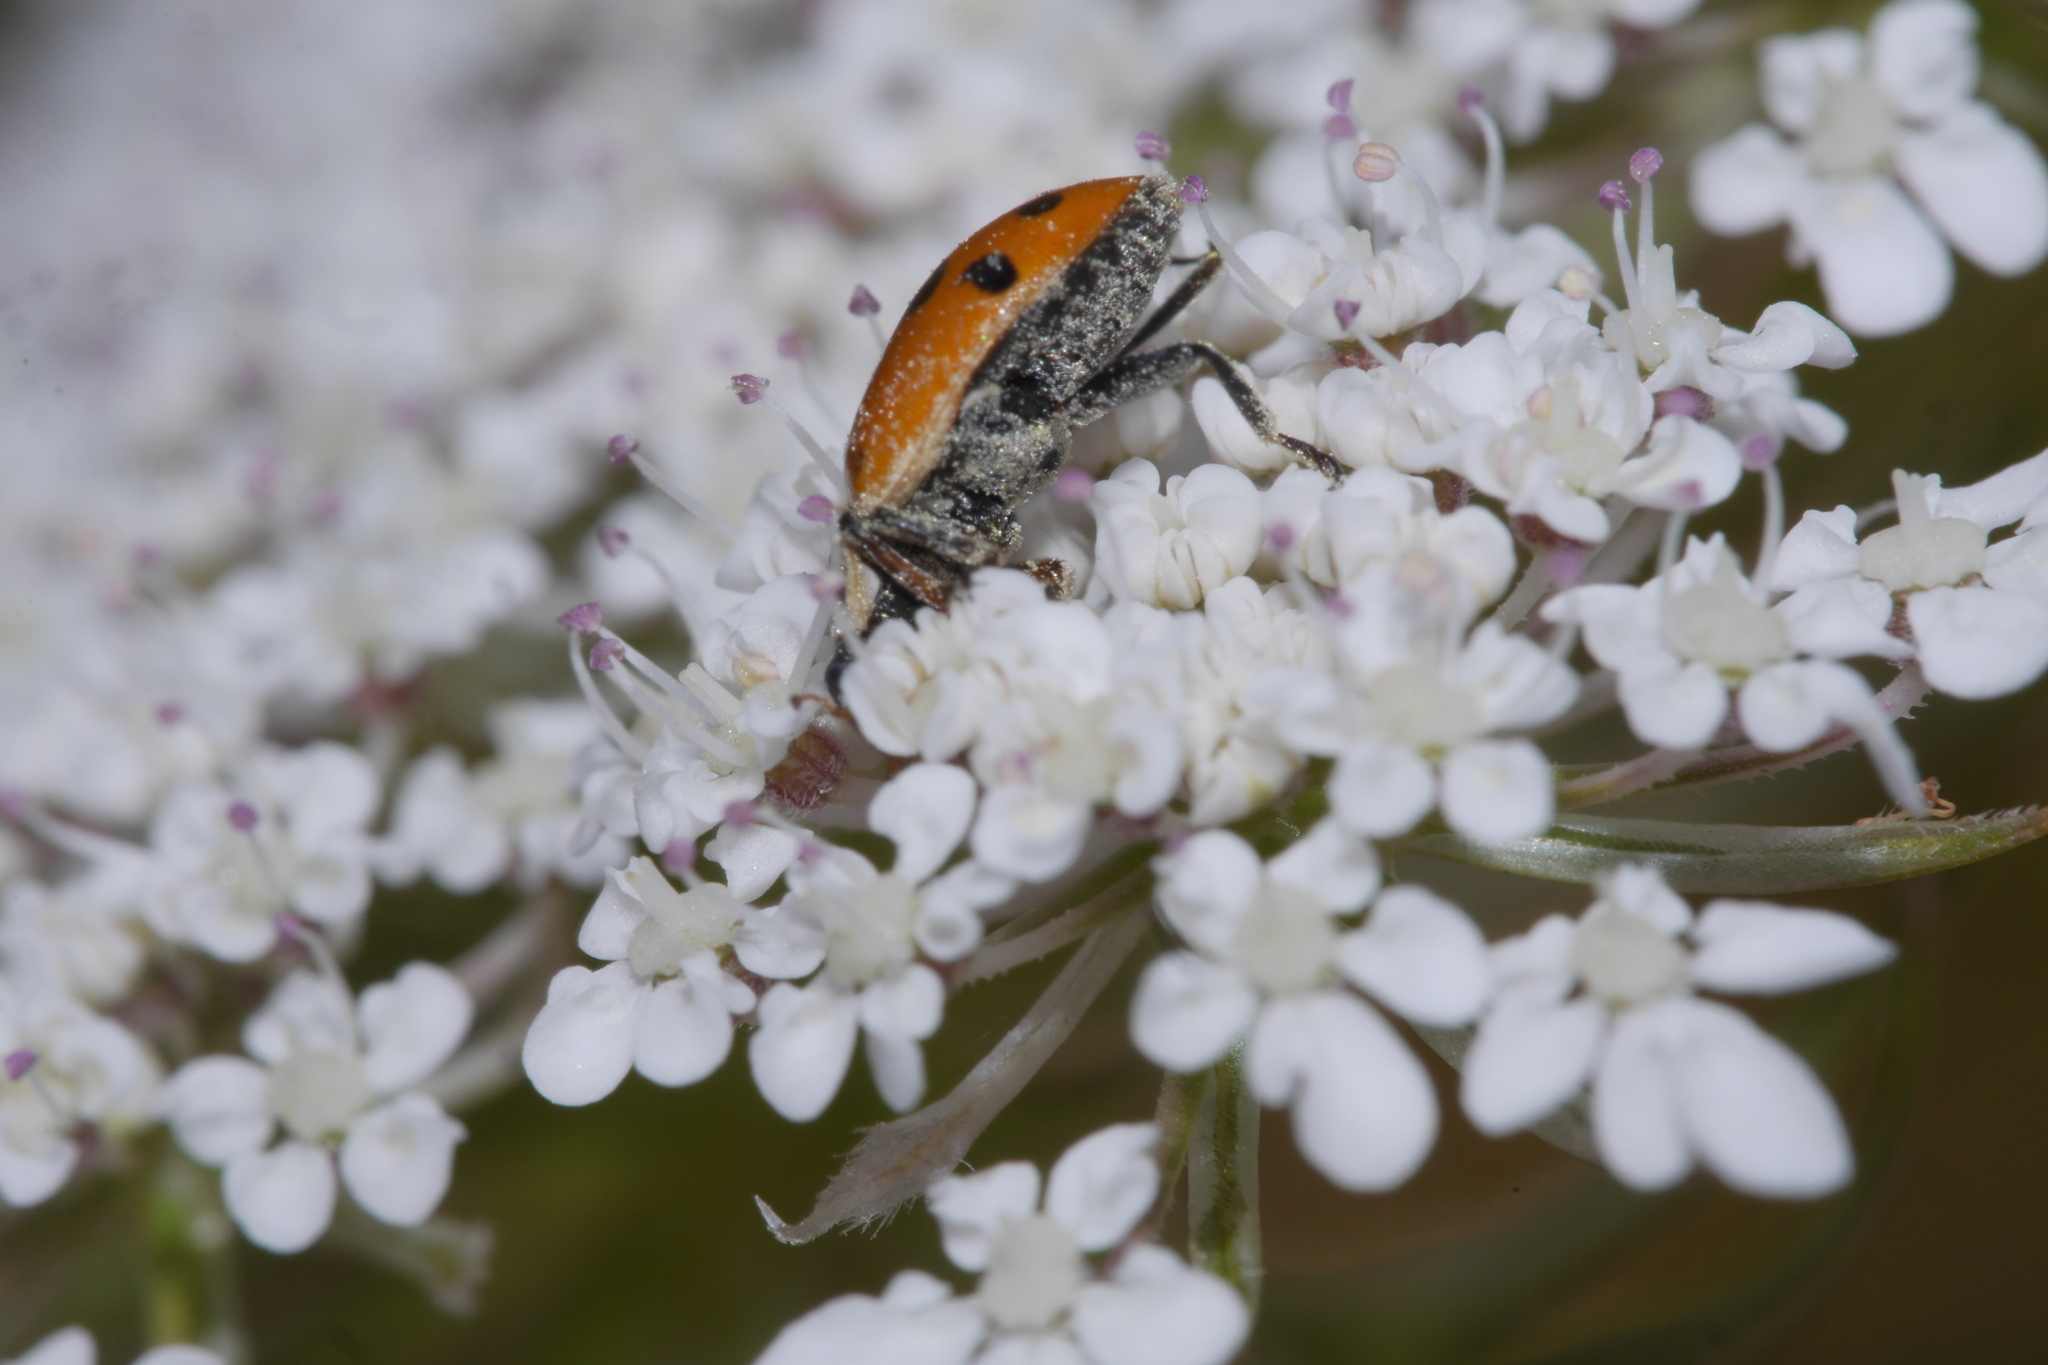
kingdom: Animalia
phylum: Arthropoda
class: Insecta
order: Coleoptera
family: Coccinellidae
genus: Hippodamia
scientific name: Hippodamia variegata
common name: Ladybird beetle
